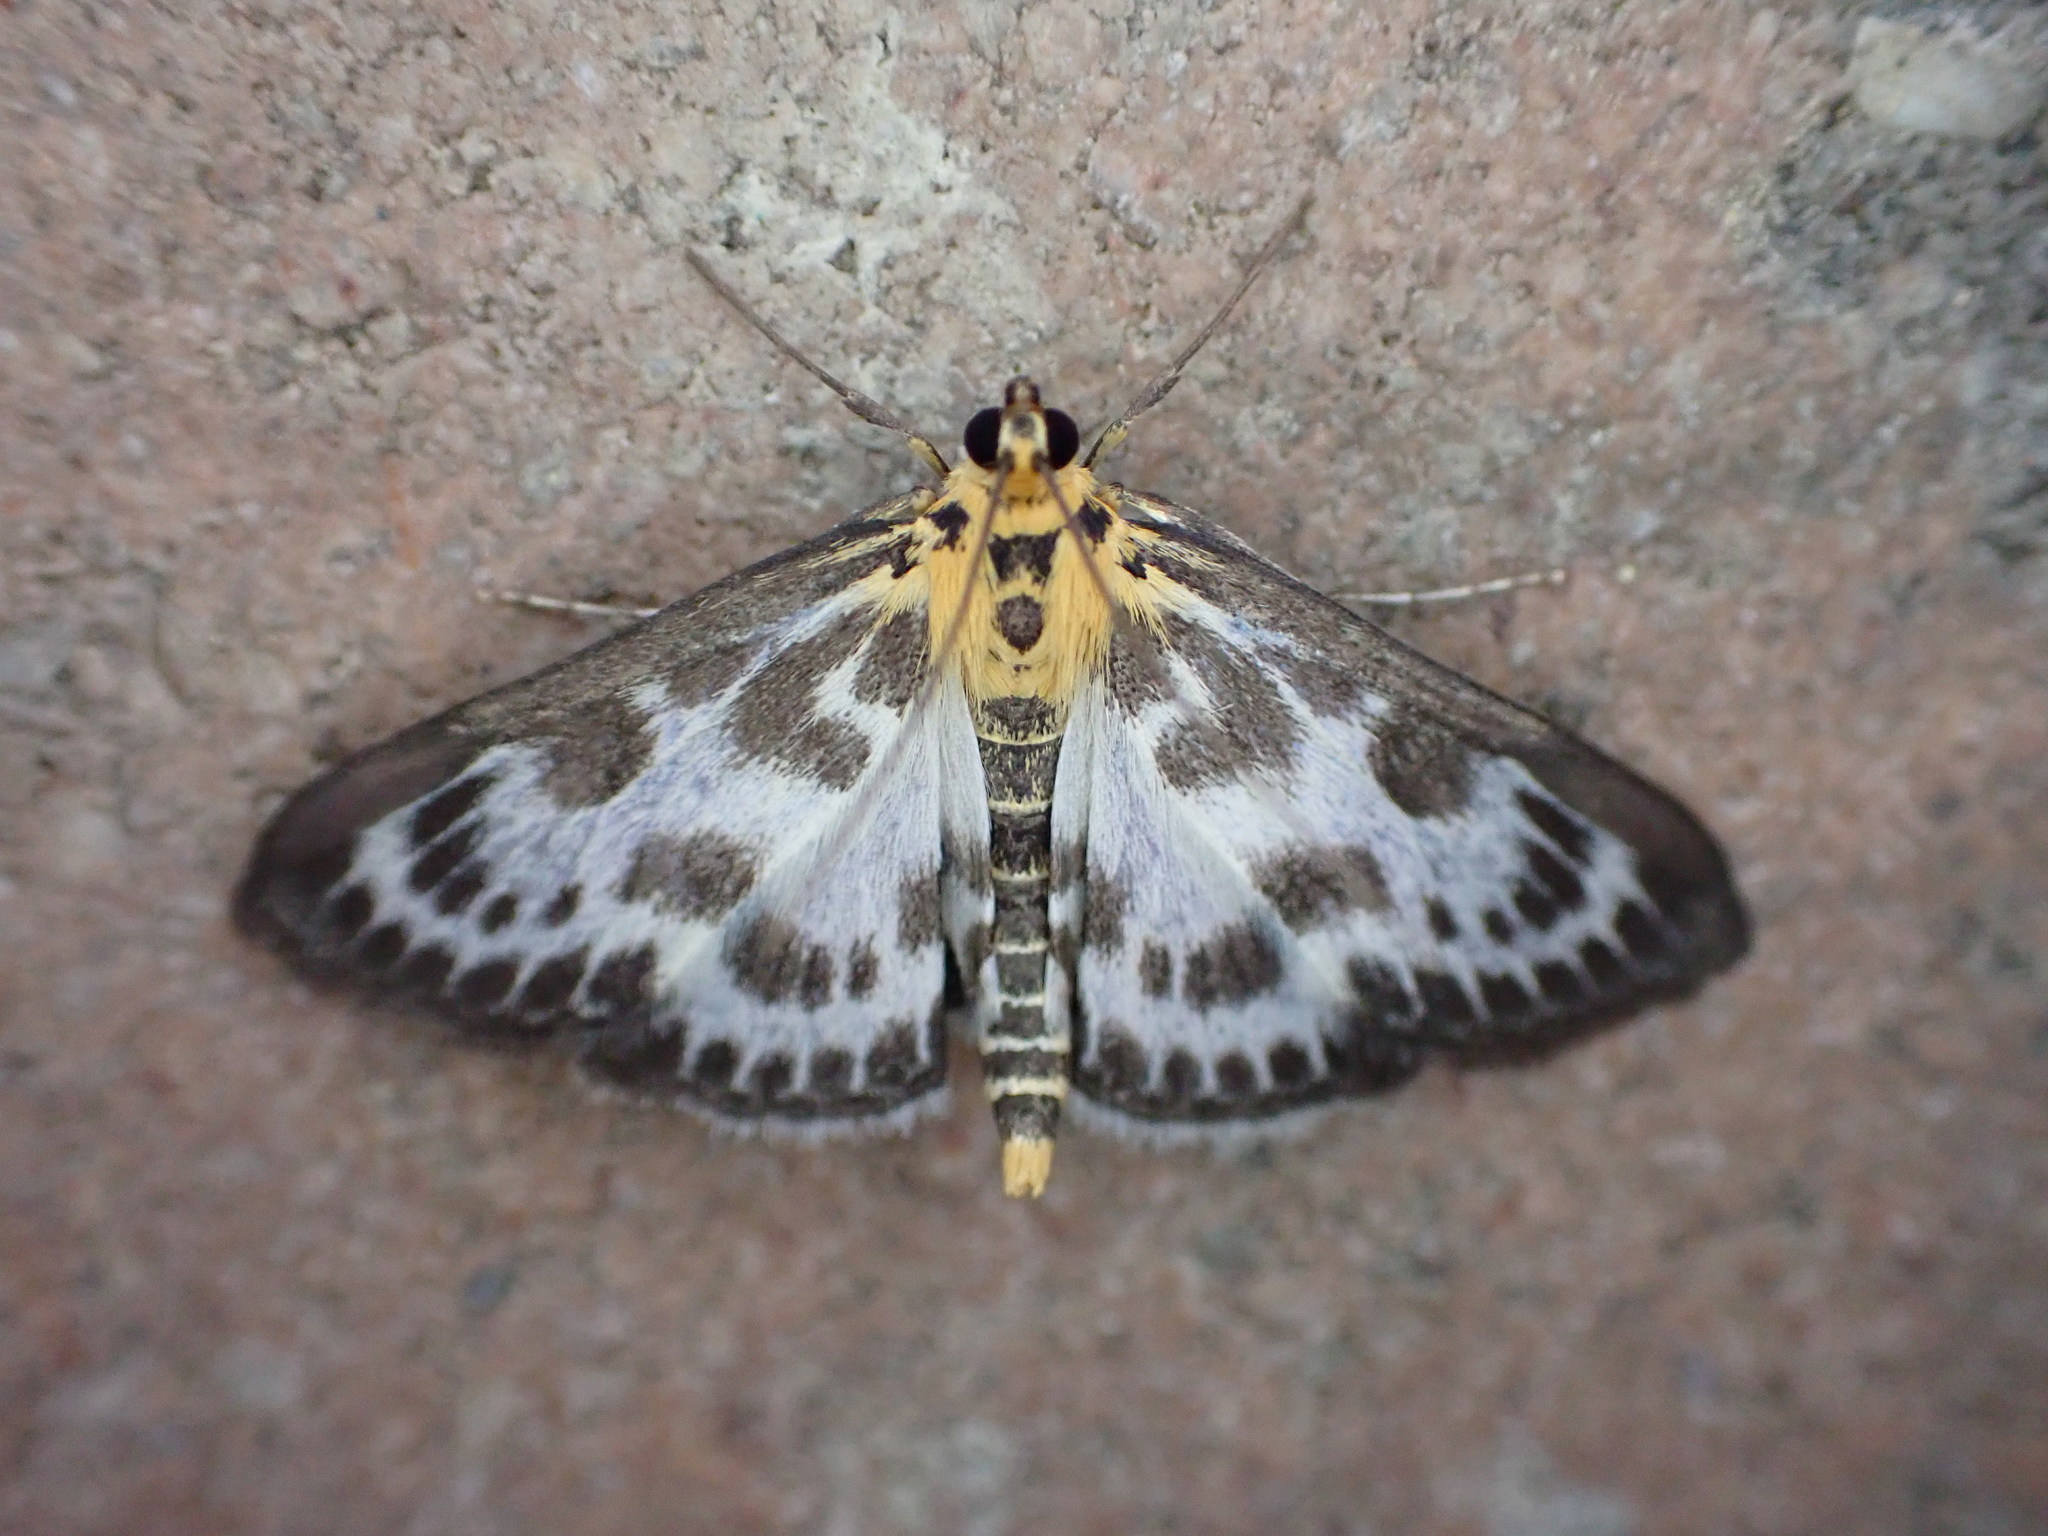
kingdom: Animalia
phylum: Arthropoda
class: Insecta
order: Lepidoptera
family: Crambidae
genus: Anania
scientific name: Anania hortulata
